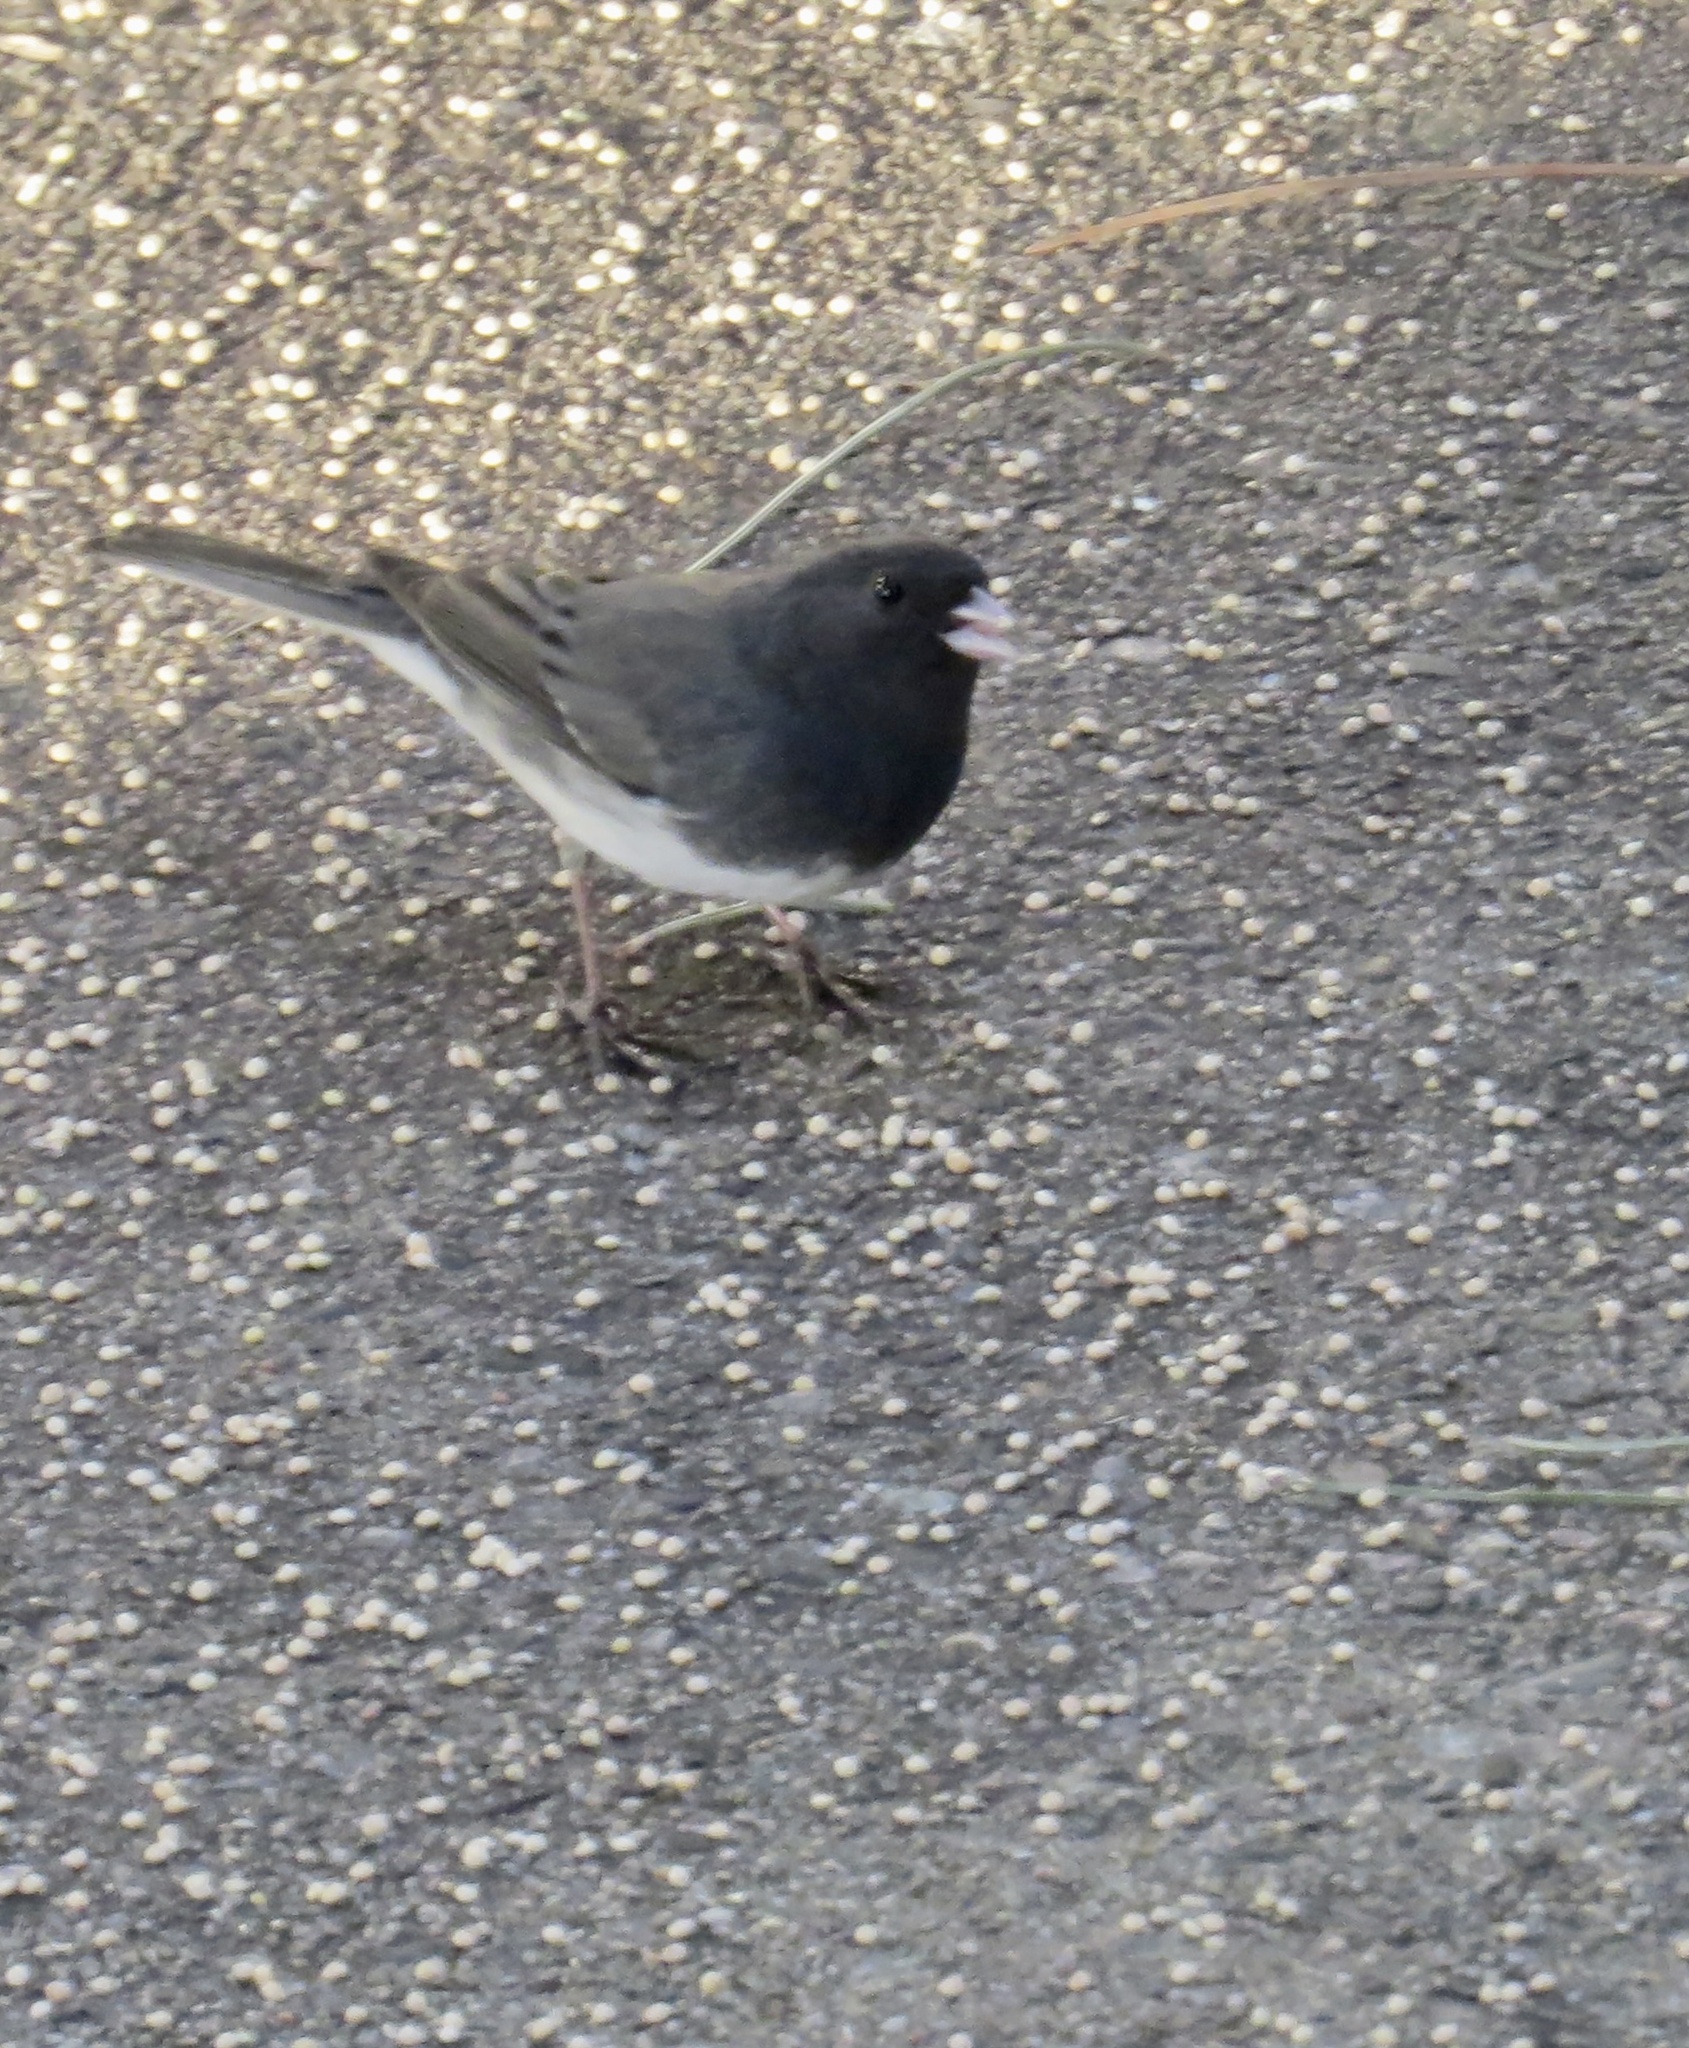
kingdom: Animalia
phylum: Chordata
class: Aves
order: Passeriformes
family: Passerellidae
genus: Junco
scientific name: Junco hyemalis
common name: Dark-eyed junco
